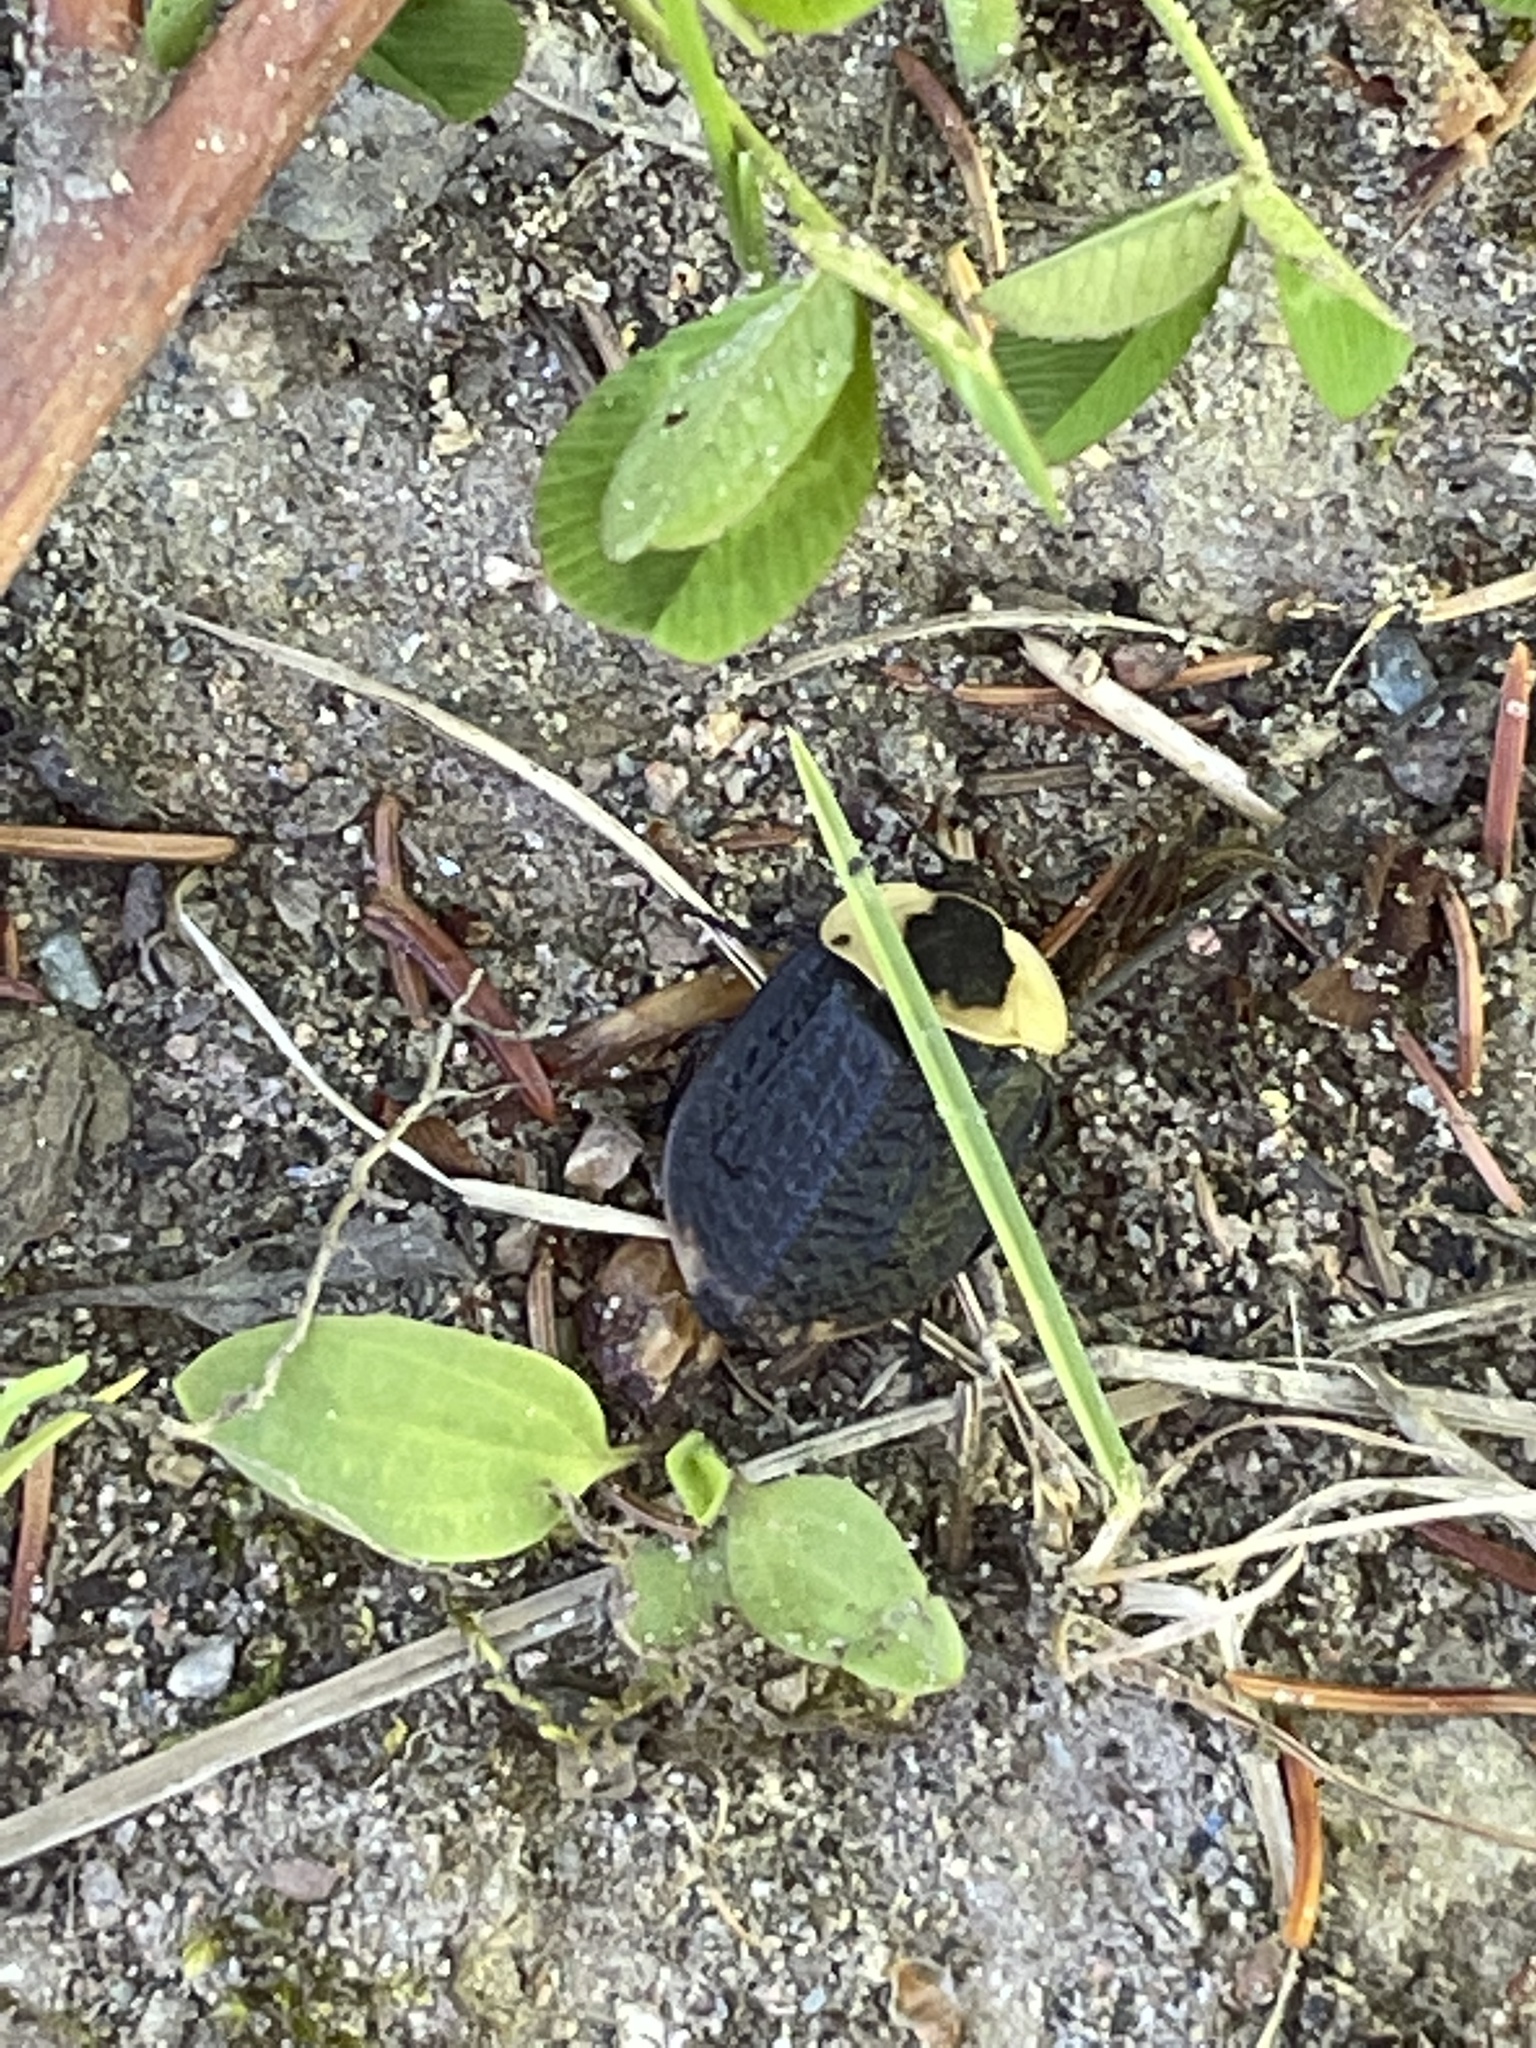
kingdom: Animalia
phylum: Arthropoda
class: Insecta
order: Coleoptera
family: Staphylinidae
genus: Necrophila
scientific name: Necrophila americana
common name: American carrion beetle
